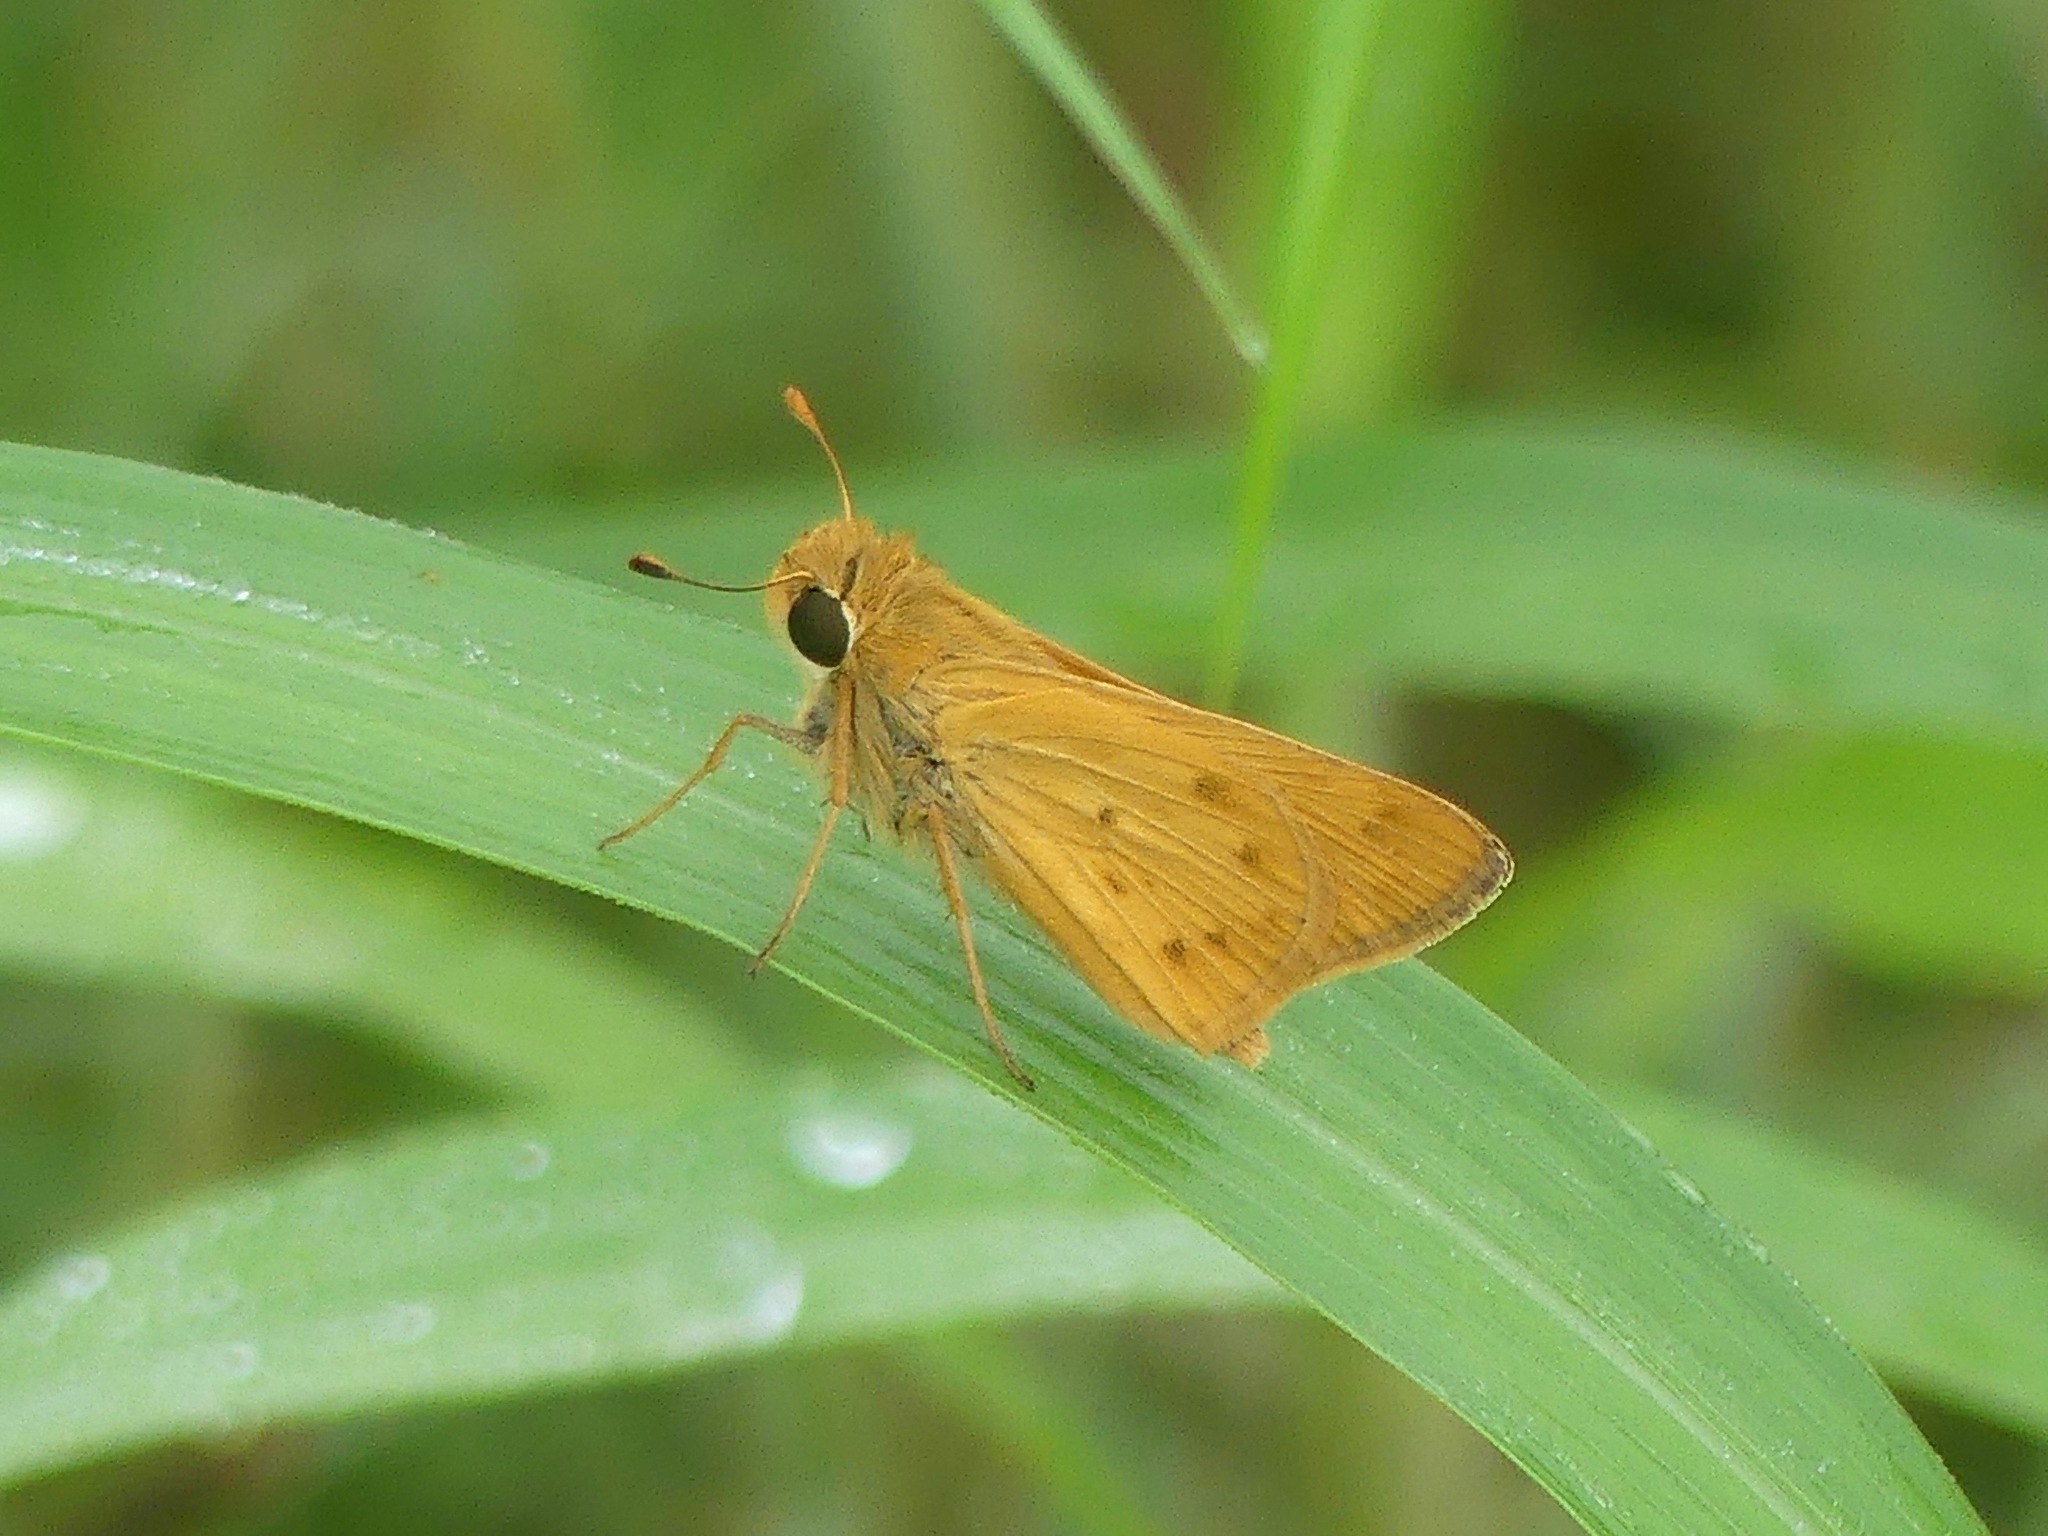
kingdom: Animalia
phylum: Arthropoda
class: Insecta
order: Lepidoptera
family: Hesperiidae
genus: Hylephila
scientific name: Hylephila phyleus
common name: Fiery skipper
